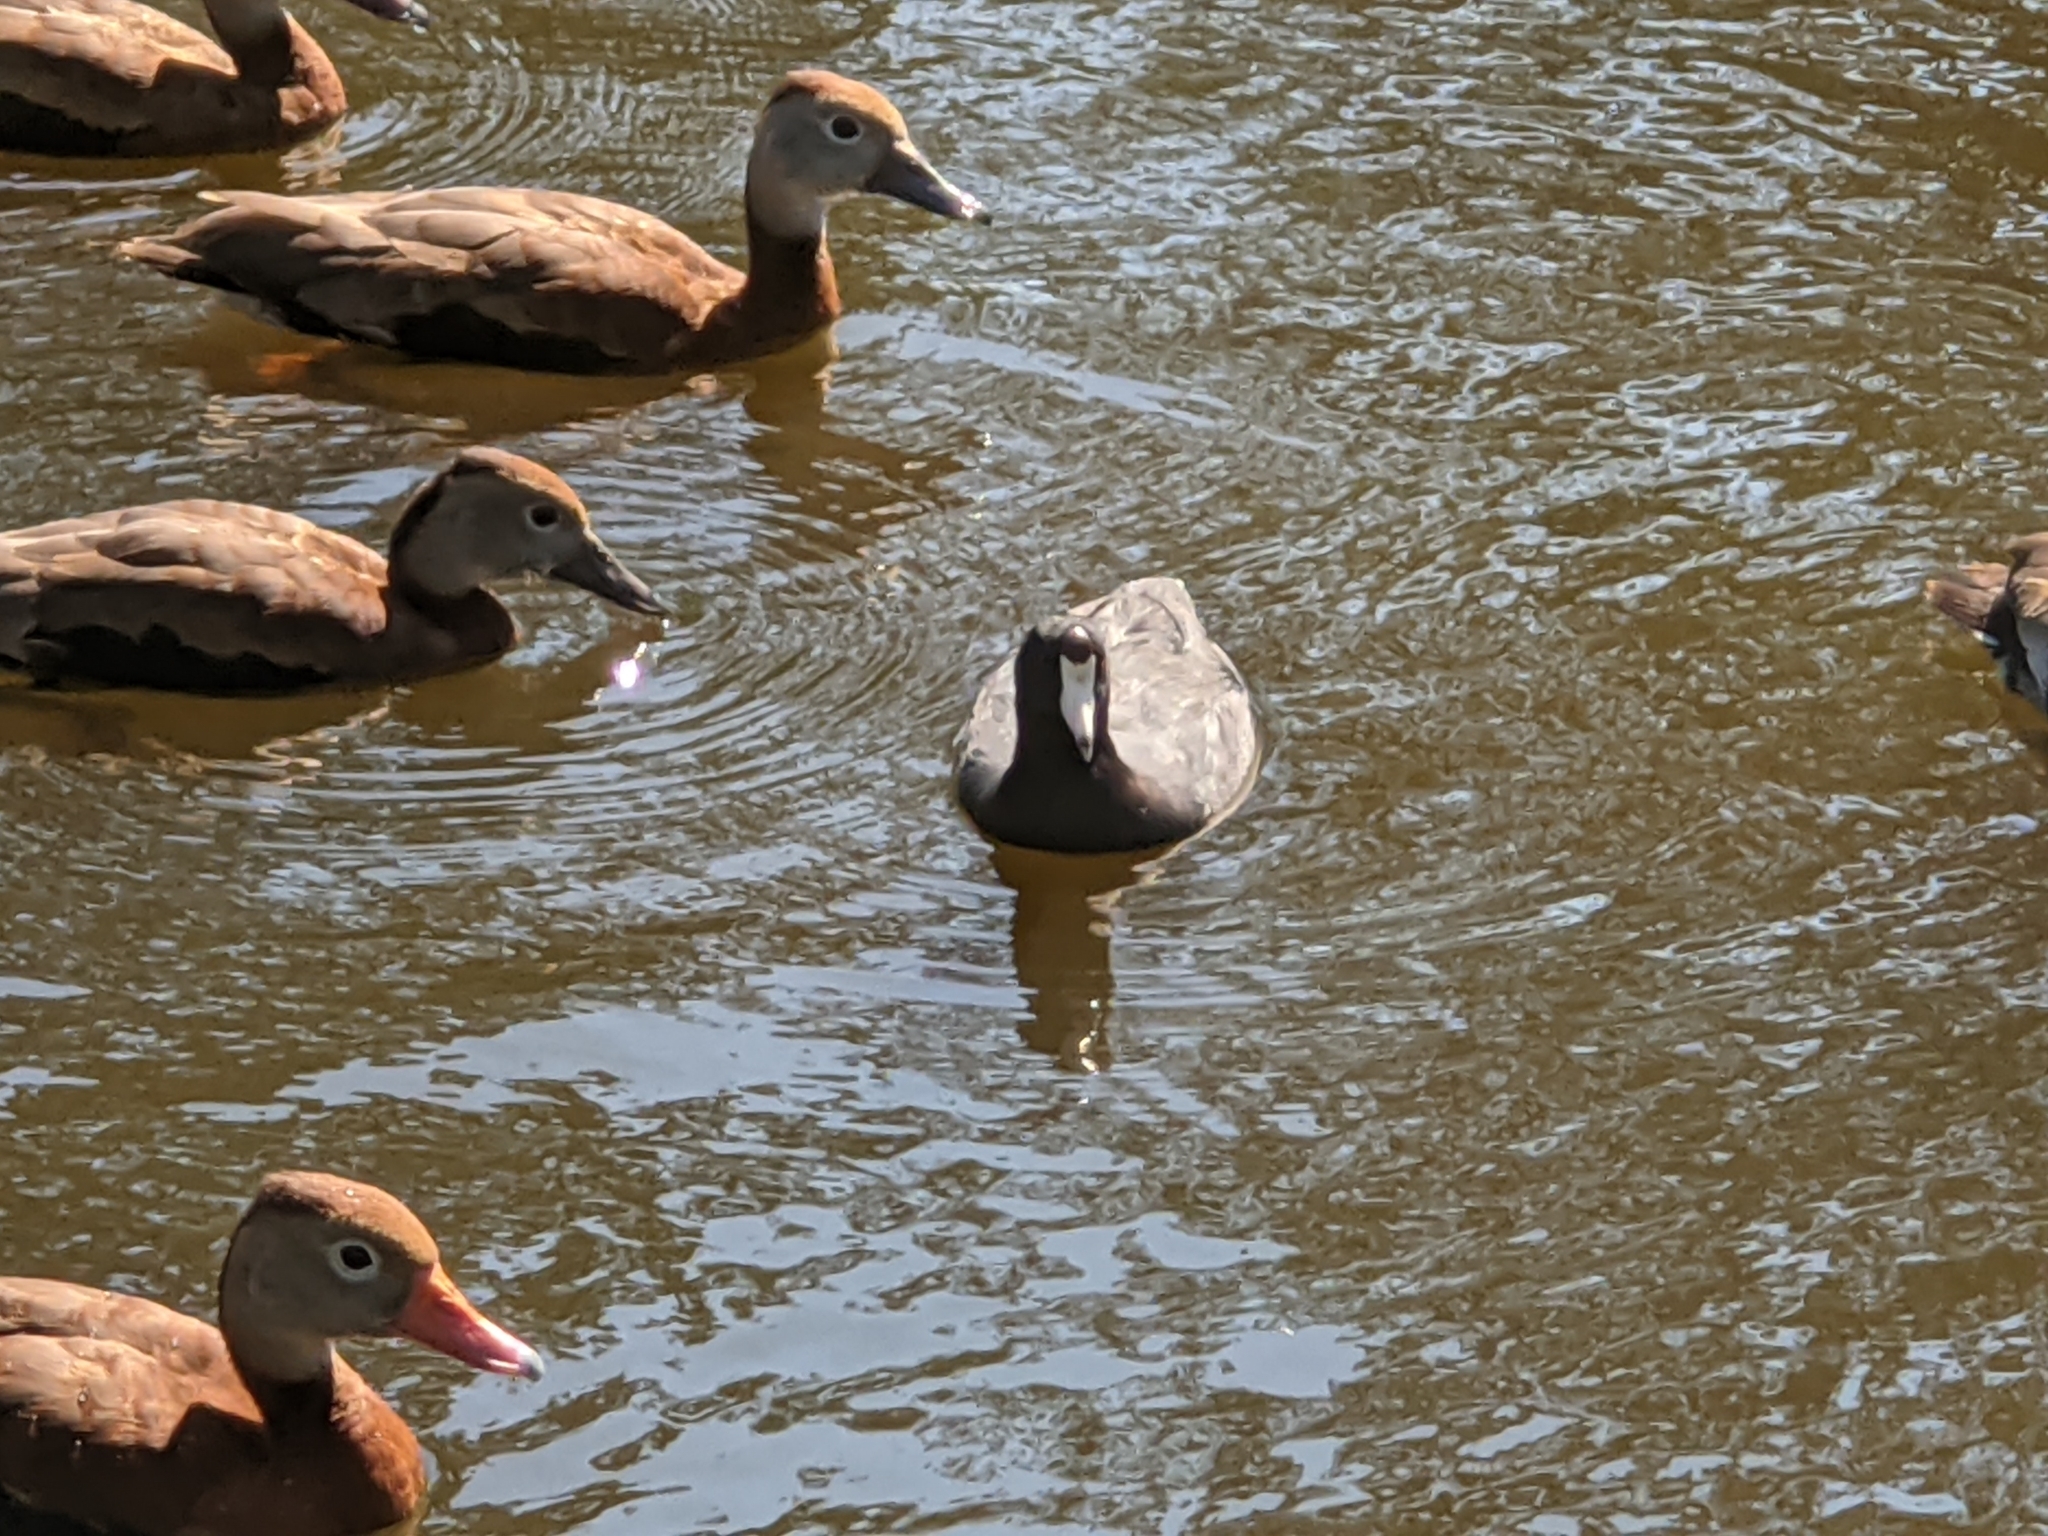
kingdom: Animalia
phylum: Chordata
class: Aves
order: Gruiformes
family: Rallidae
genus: Fulica
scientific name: Fulica americana
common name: American coot
